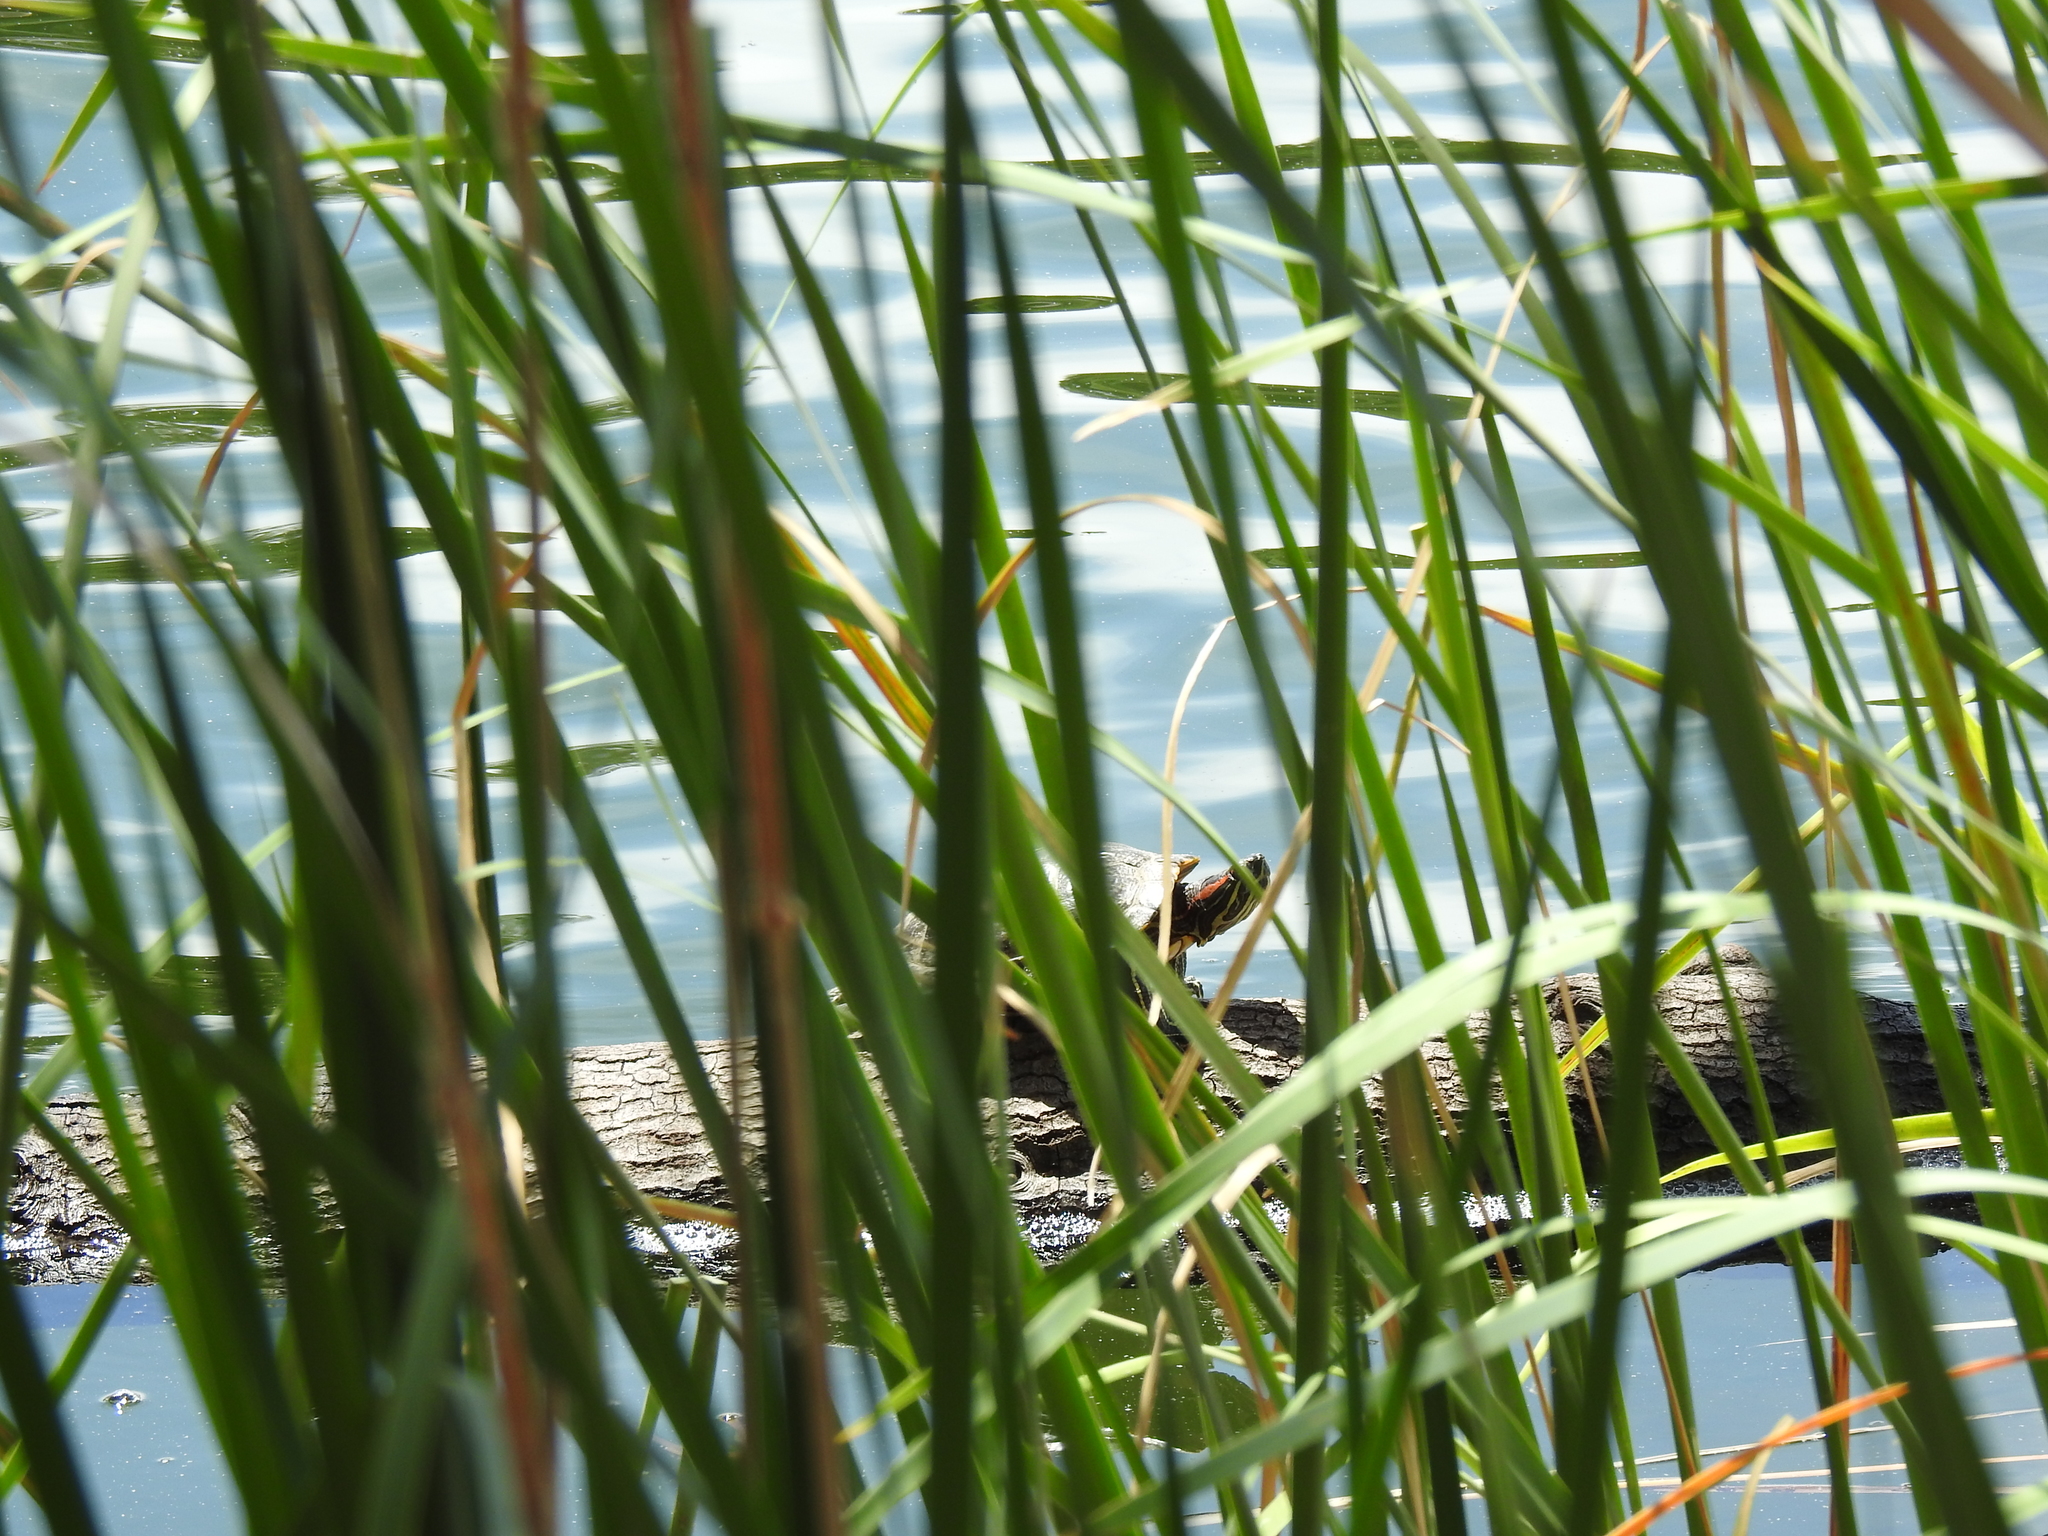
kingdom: Animalia
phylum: Chordata
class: Testudines
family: Emydidae
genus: Trachemys
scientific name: Trachemys scripta
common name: Slider
